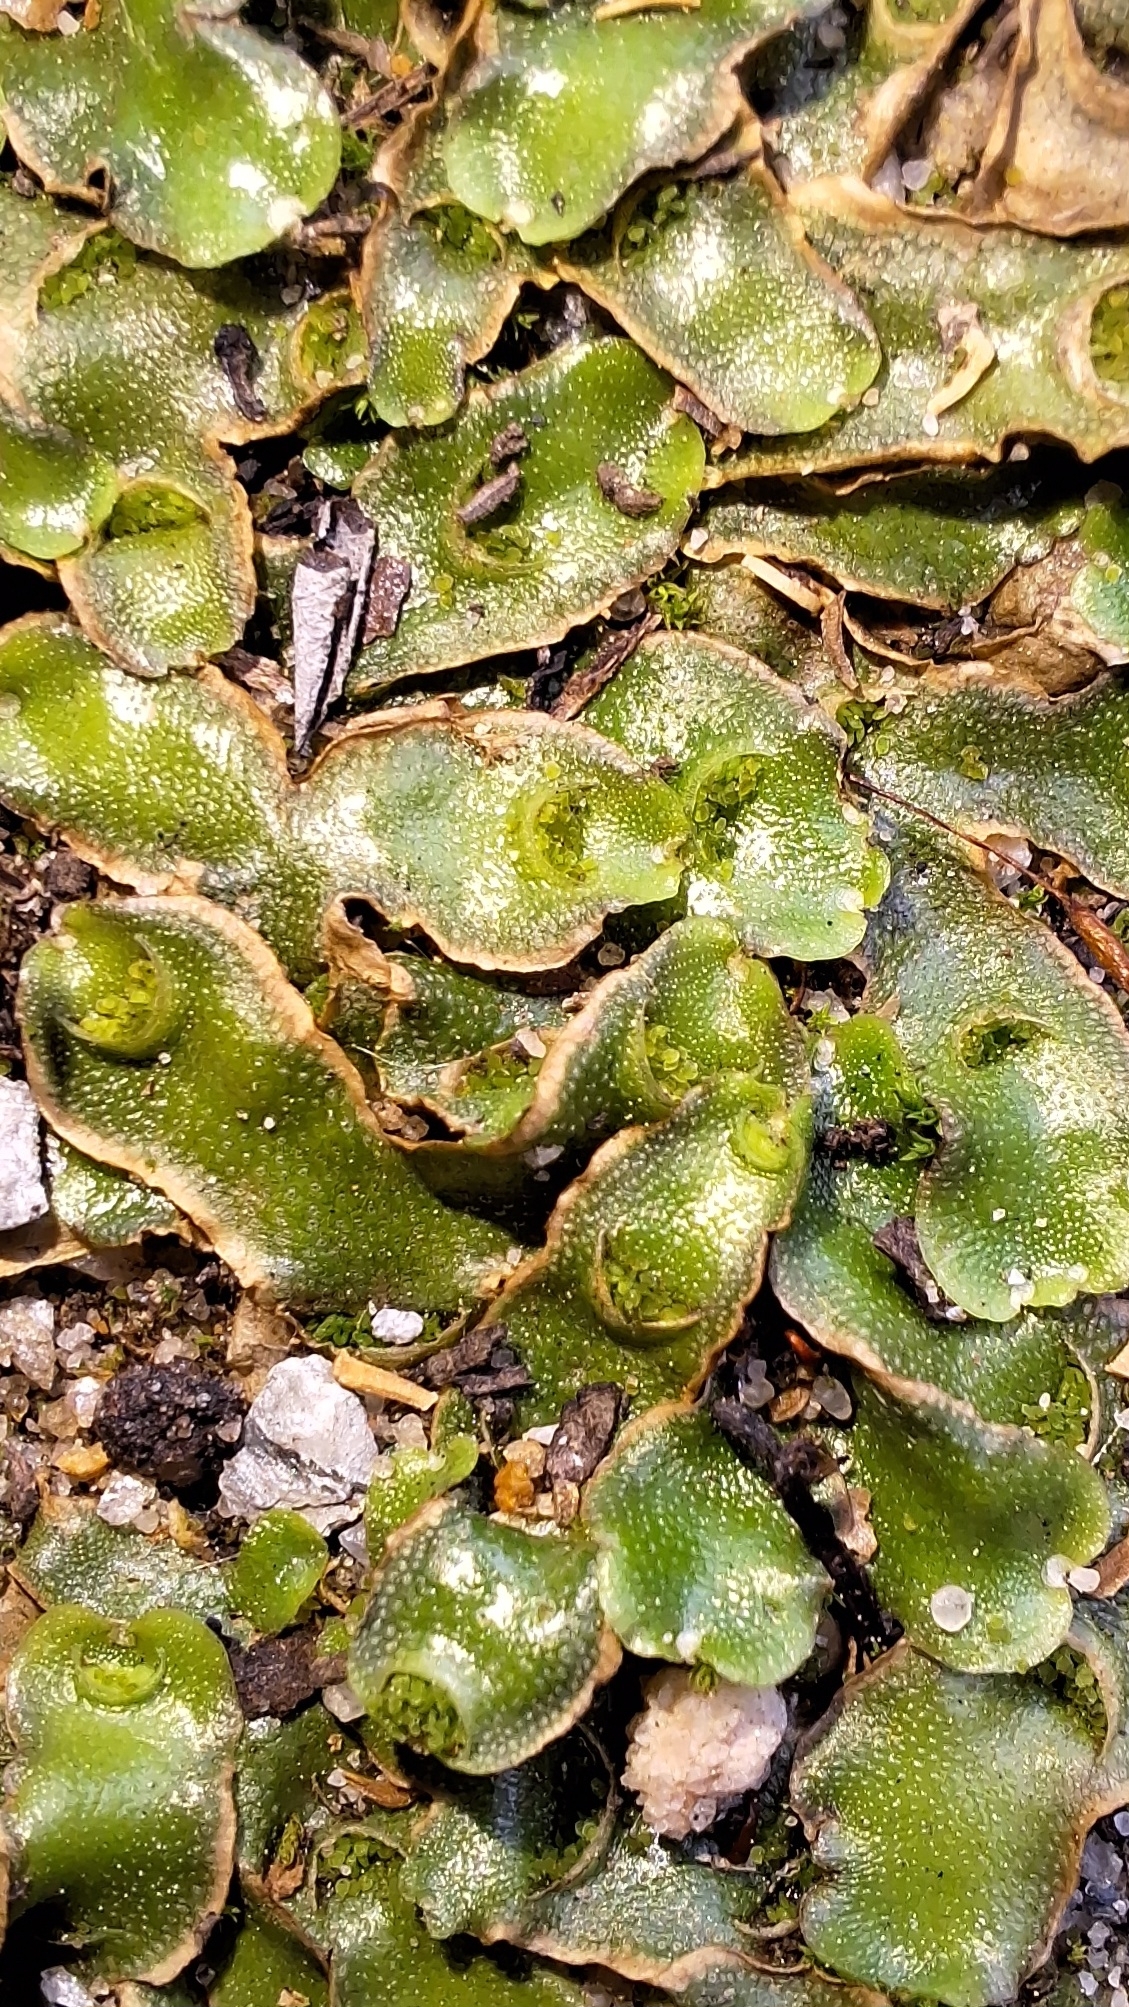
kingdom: Plantae
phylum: Marchantiophyta
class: Marchantiopsida
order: Lunulariales
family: Lunulariaceae
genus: Lunularia
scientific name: Lunularia cruciata
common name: Crescent-cup liverwort
